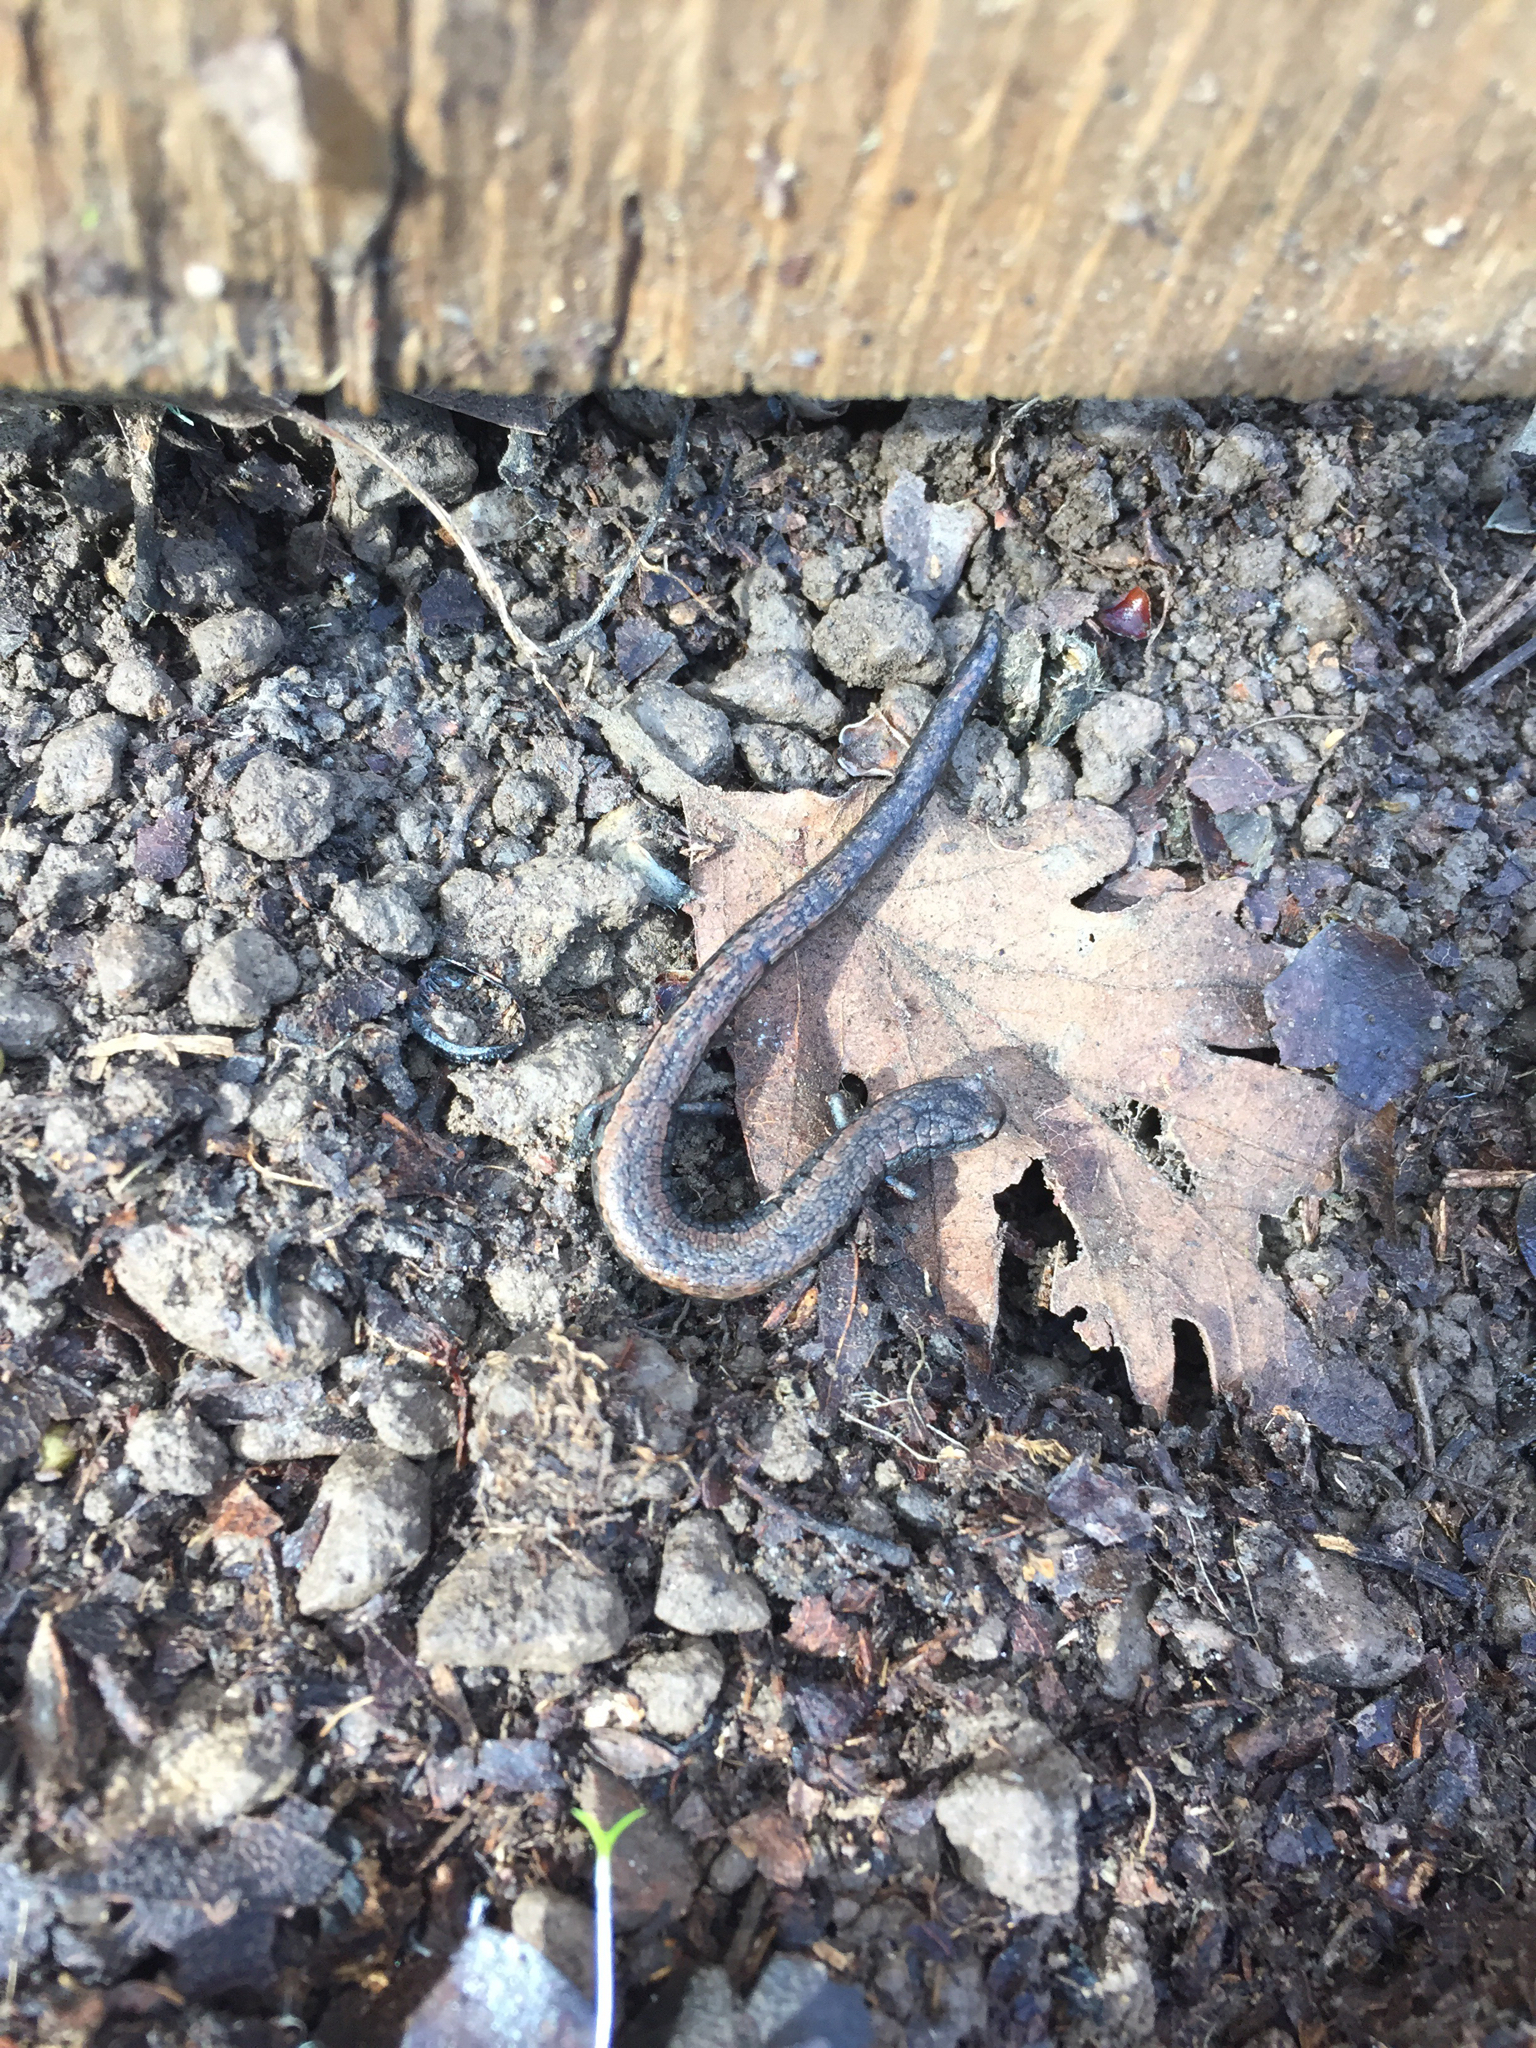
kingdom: Animalia
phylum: Chordata
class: Amphibia
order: Caudata
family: Plethodontidae
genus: Batrachoseps
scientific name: Batrachoseps attenuatus
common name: California slender salamander
